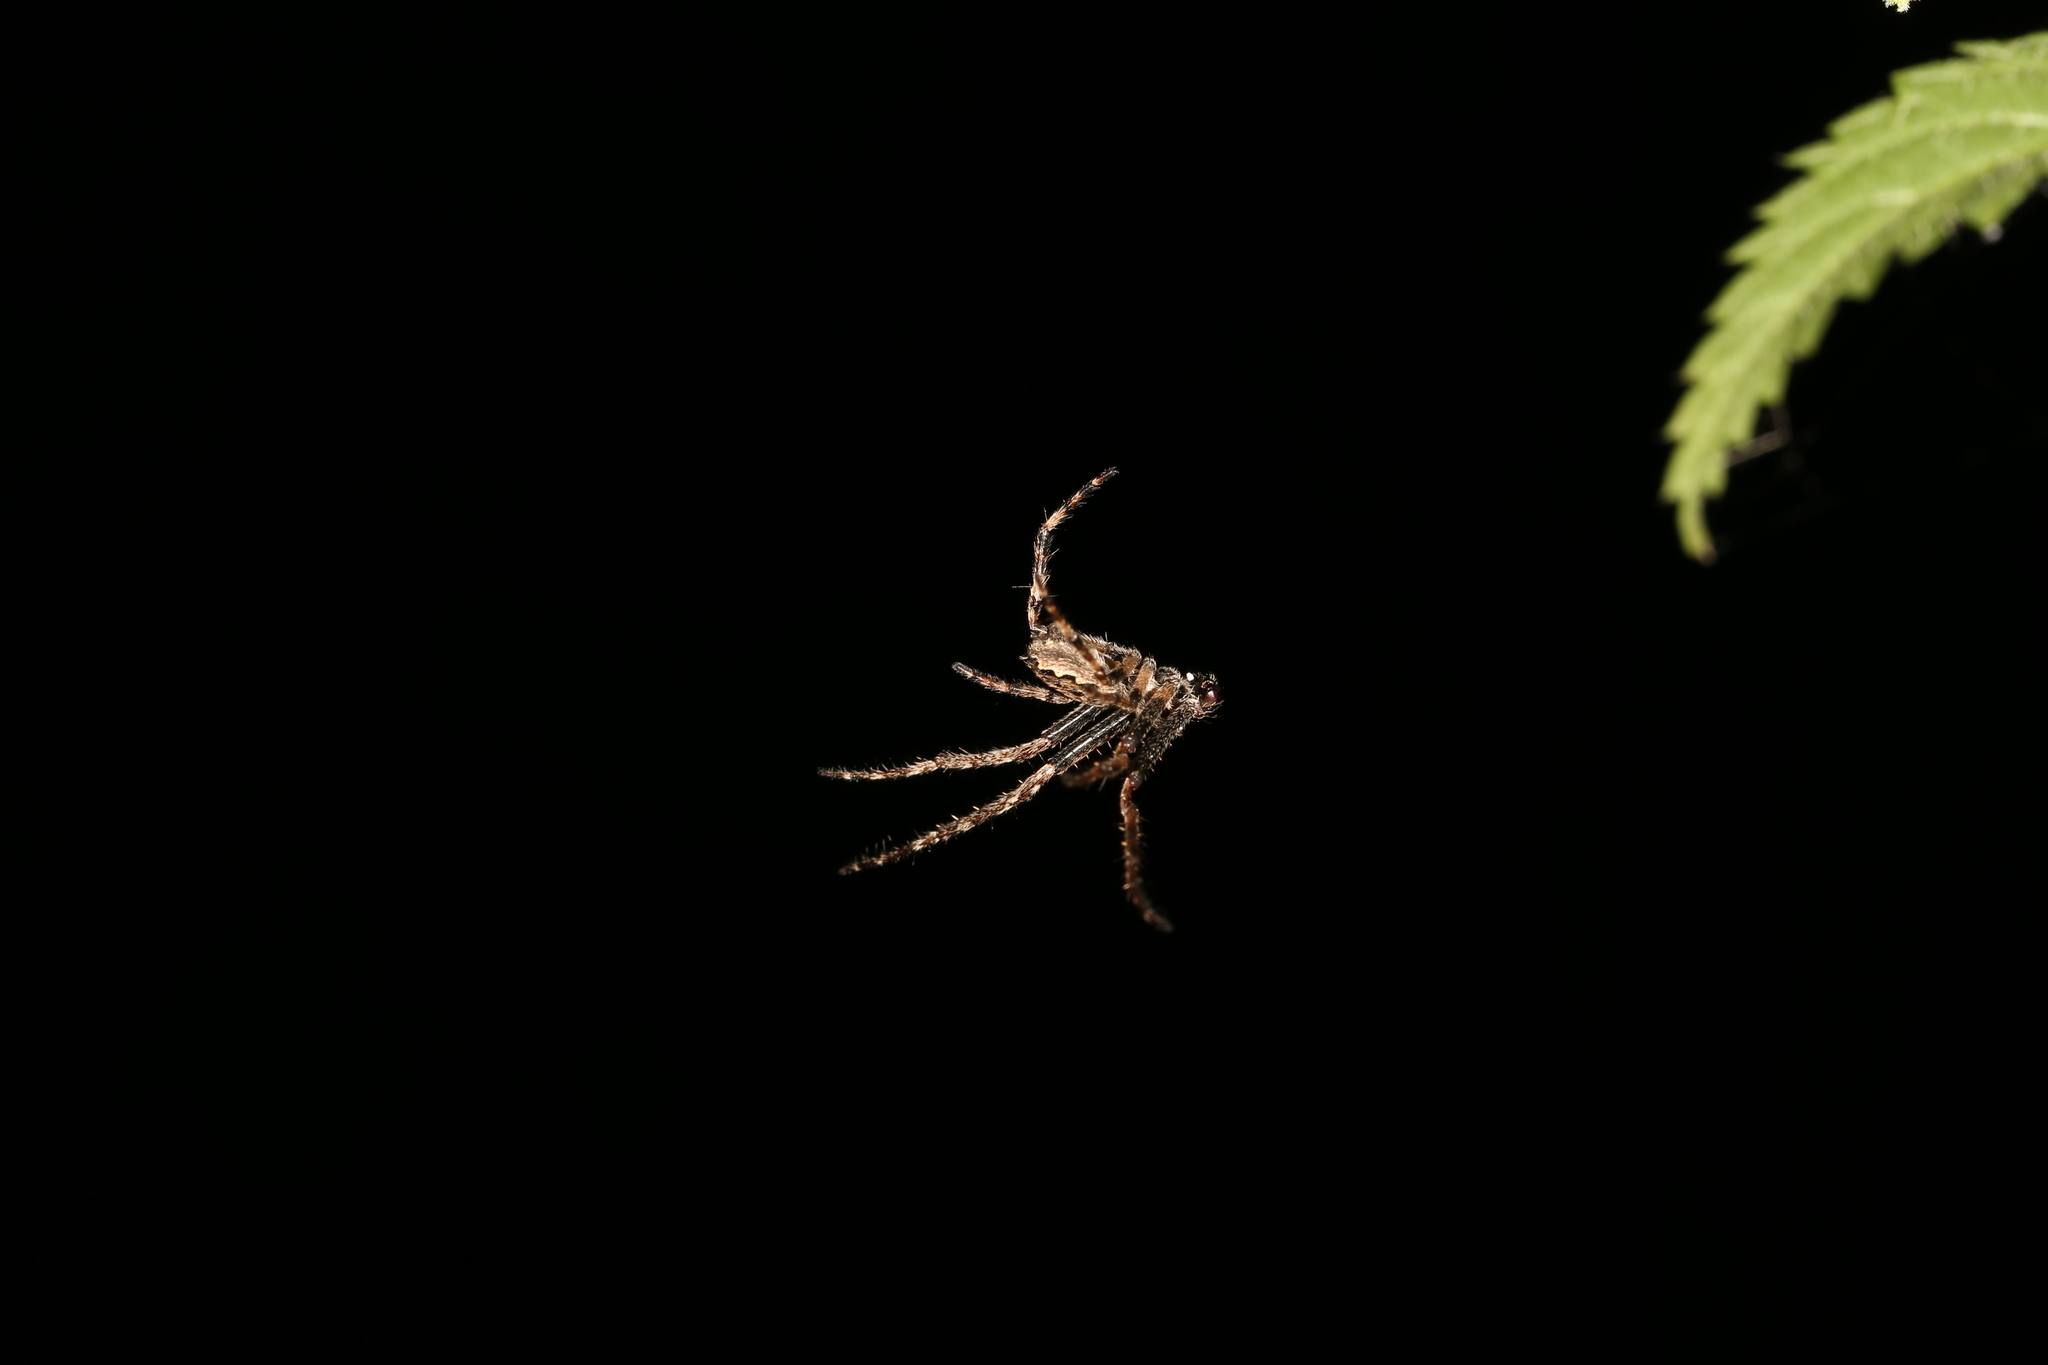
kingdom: Animalia
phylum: Arthropoda
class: Arachnida
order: Araneae
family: Araneidae
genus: Nuctenea
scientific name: Nuctenea umbratica
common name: Toad spider
